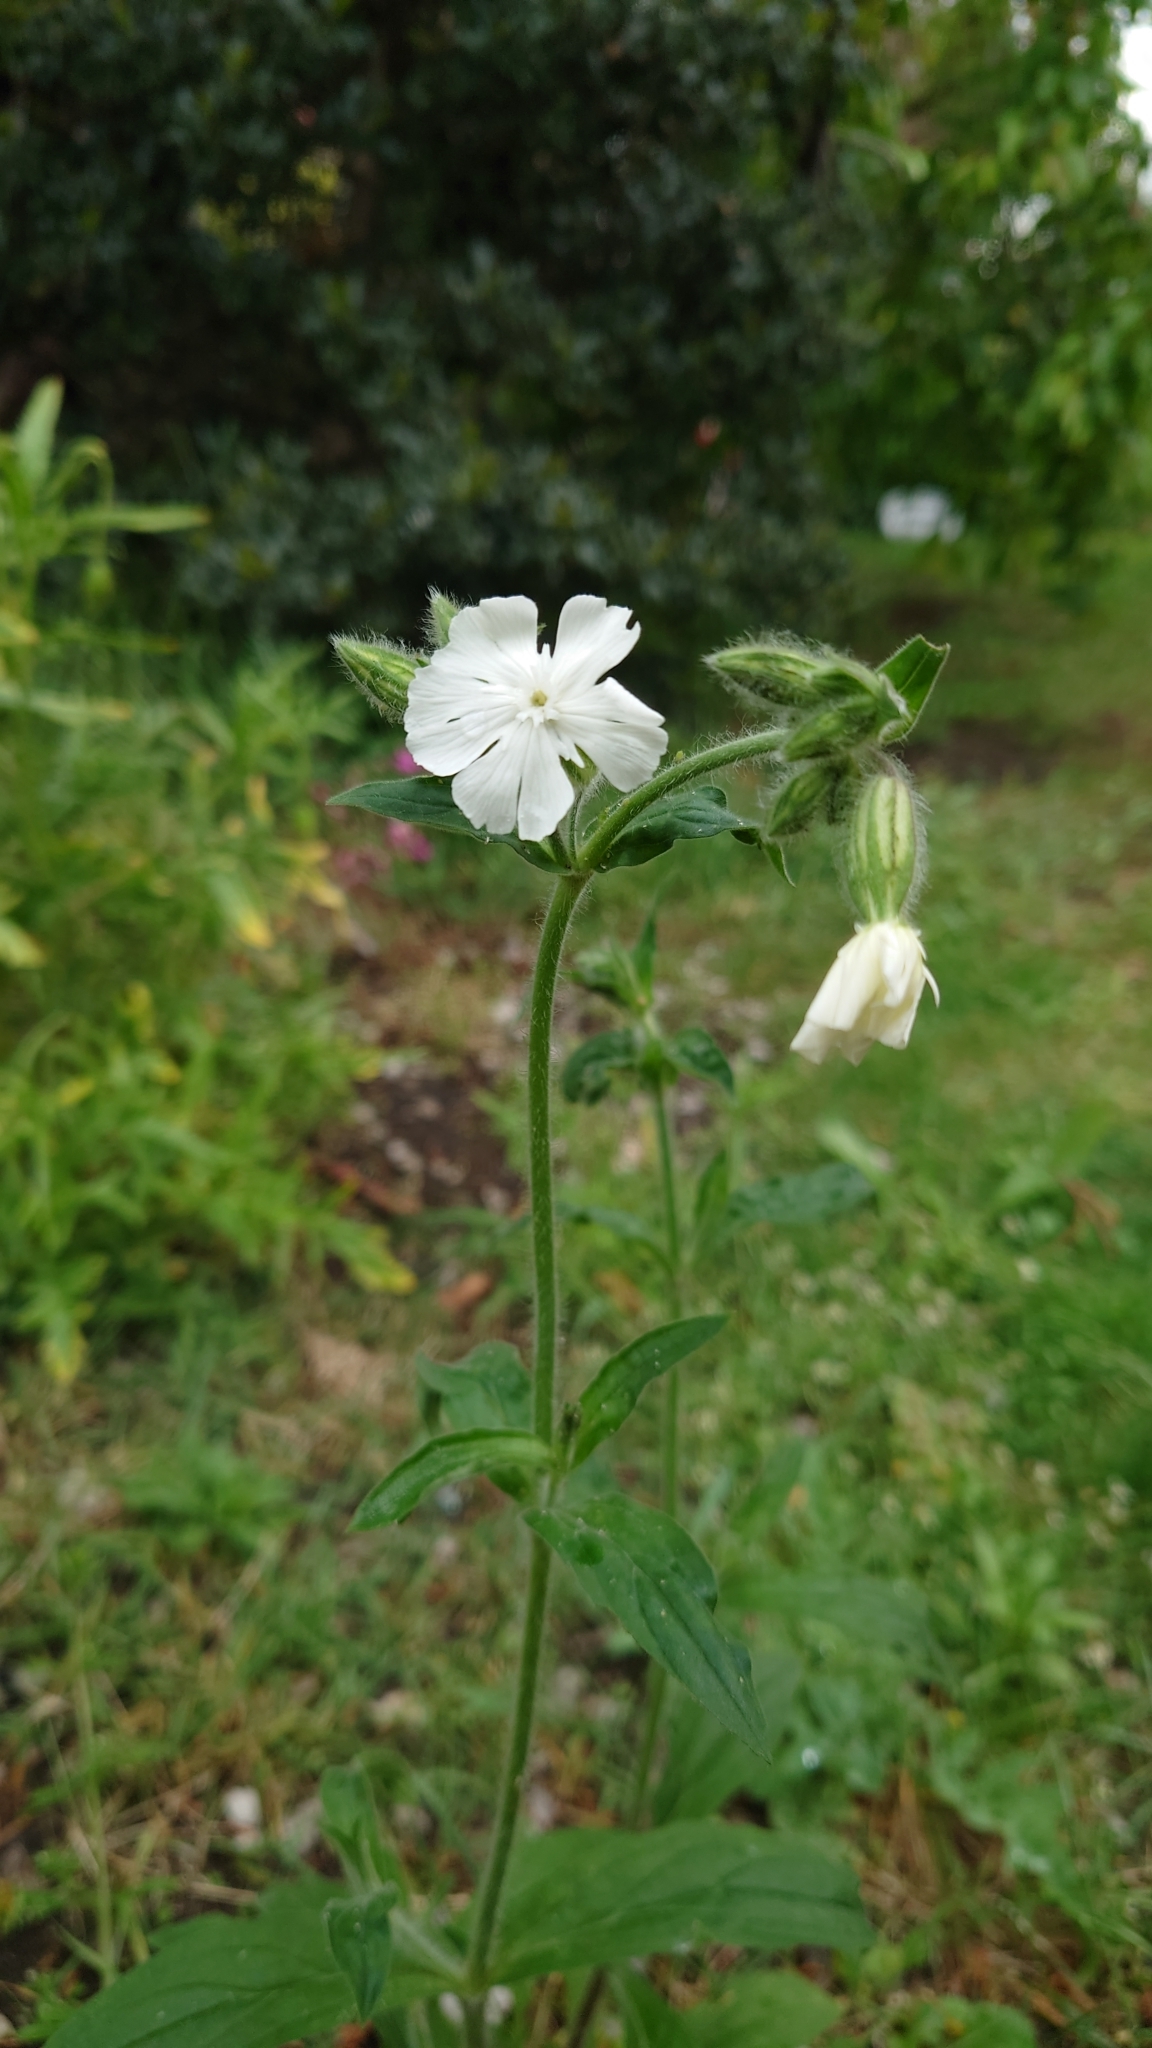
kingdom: Plantae
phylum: Tracheophyta
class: Magnoliopsida
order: Caryophyllales
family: Caryophyllaceae
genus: Silene
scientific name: Silene latifolia
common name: White campion
